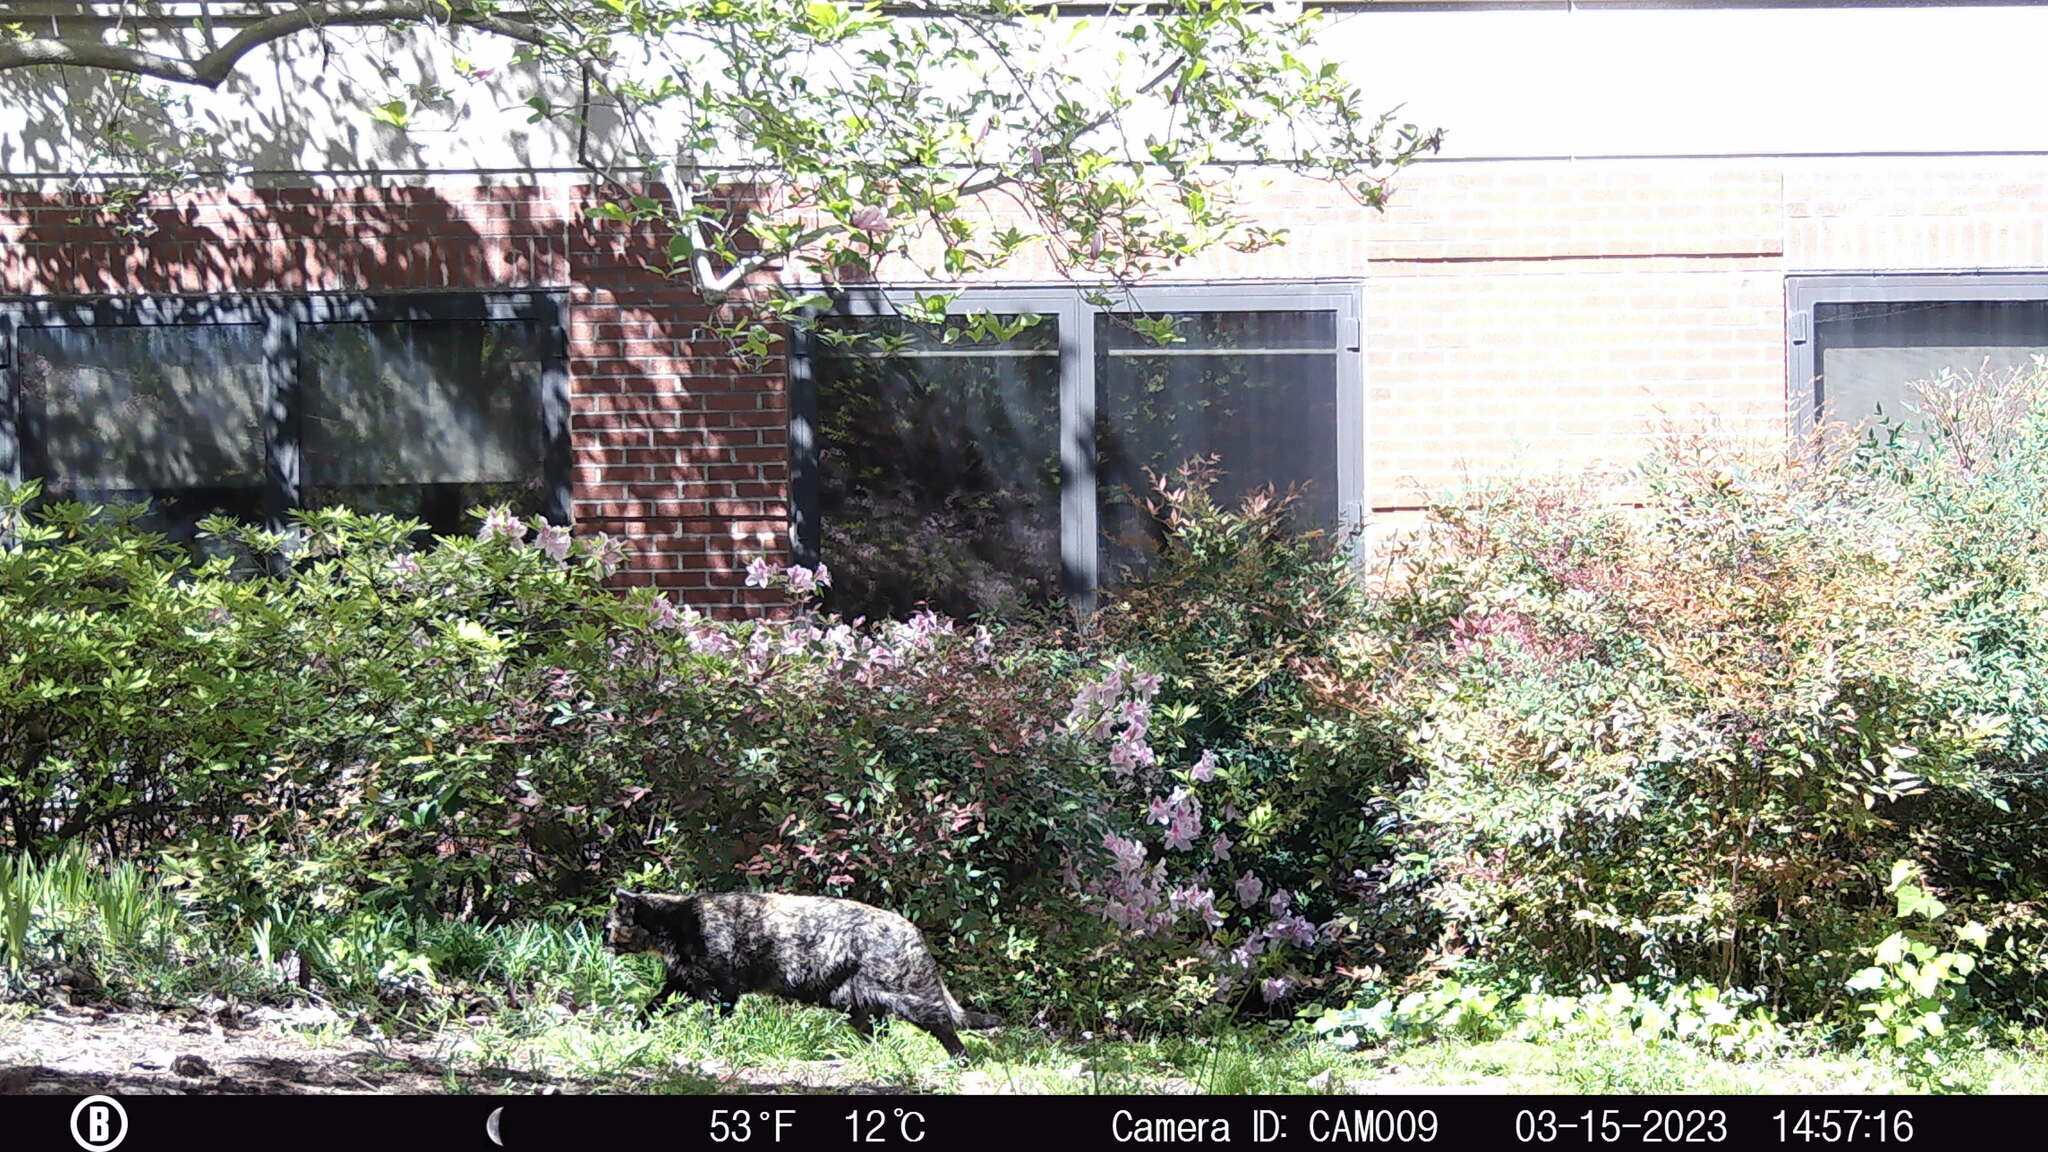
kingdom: Animalia
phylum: Chordata
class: Mammalia
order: Carnivora
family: Felidae
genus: Felis
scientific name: Felis catus
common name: Domestic cat
